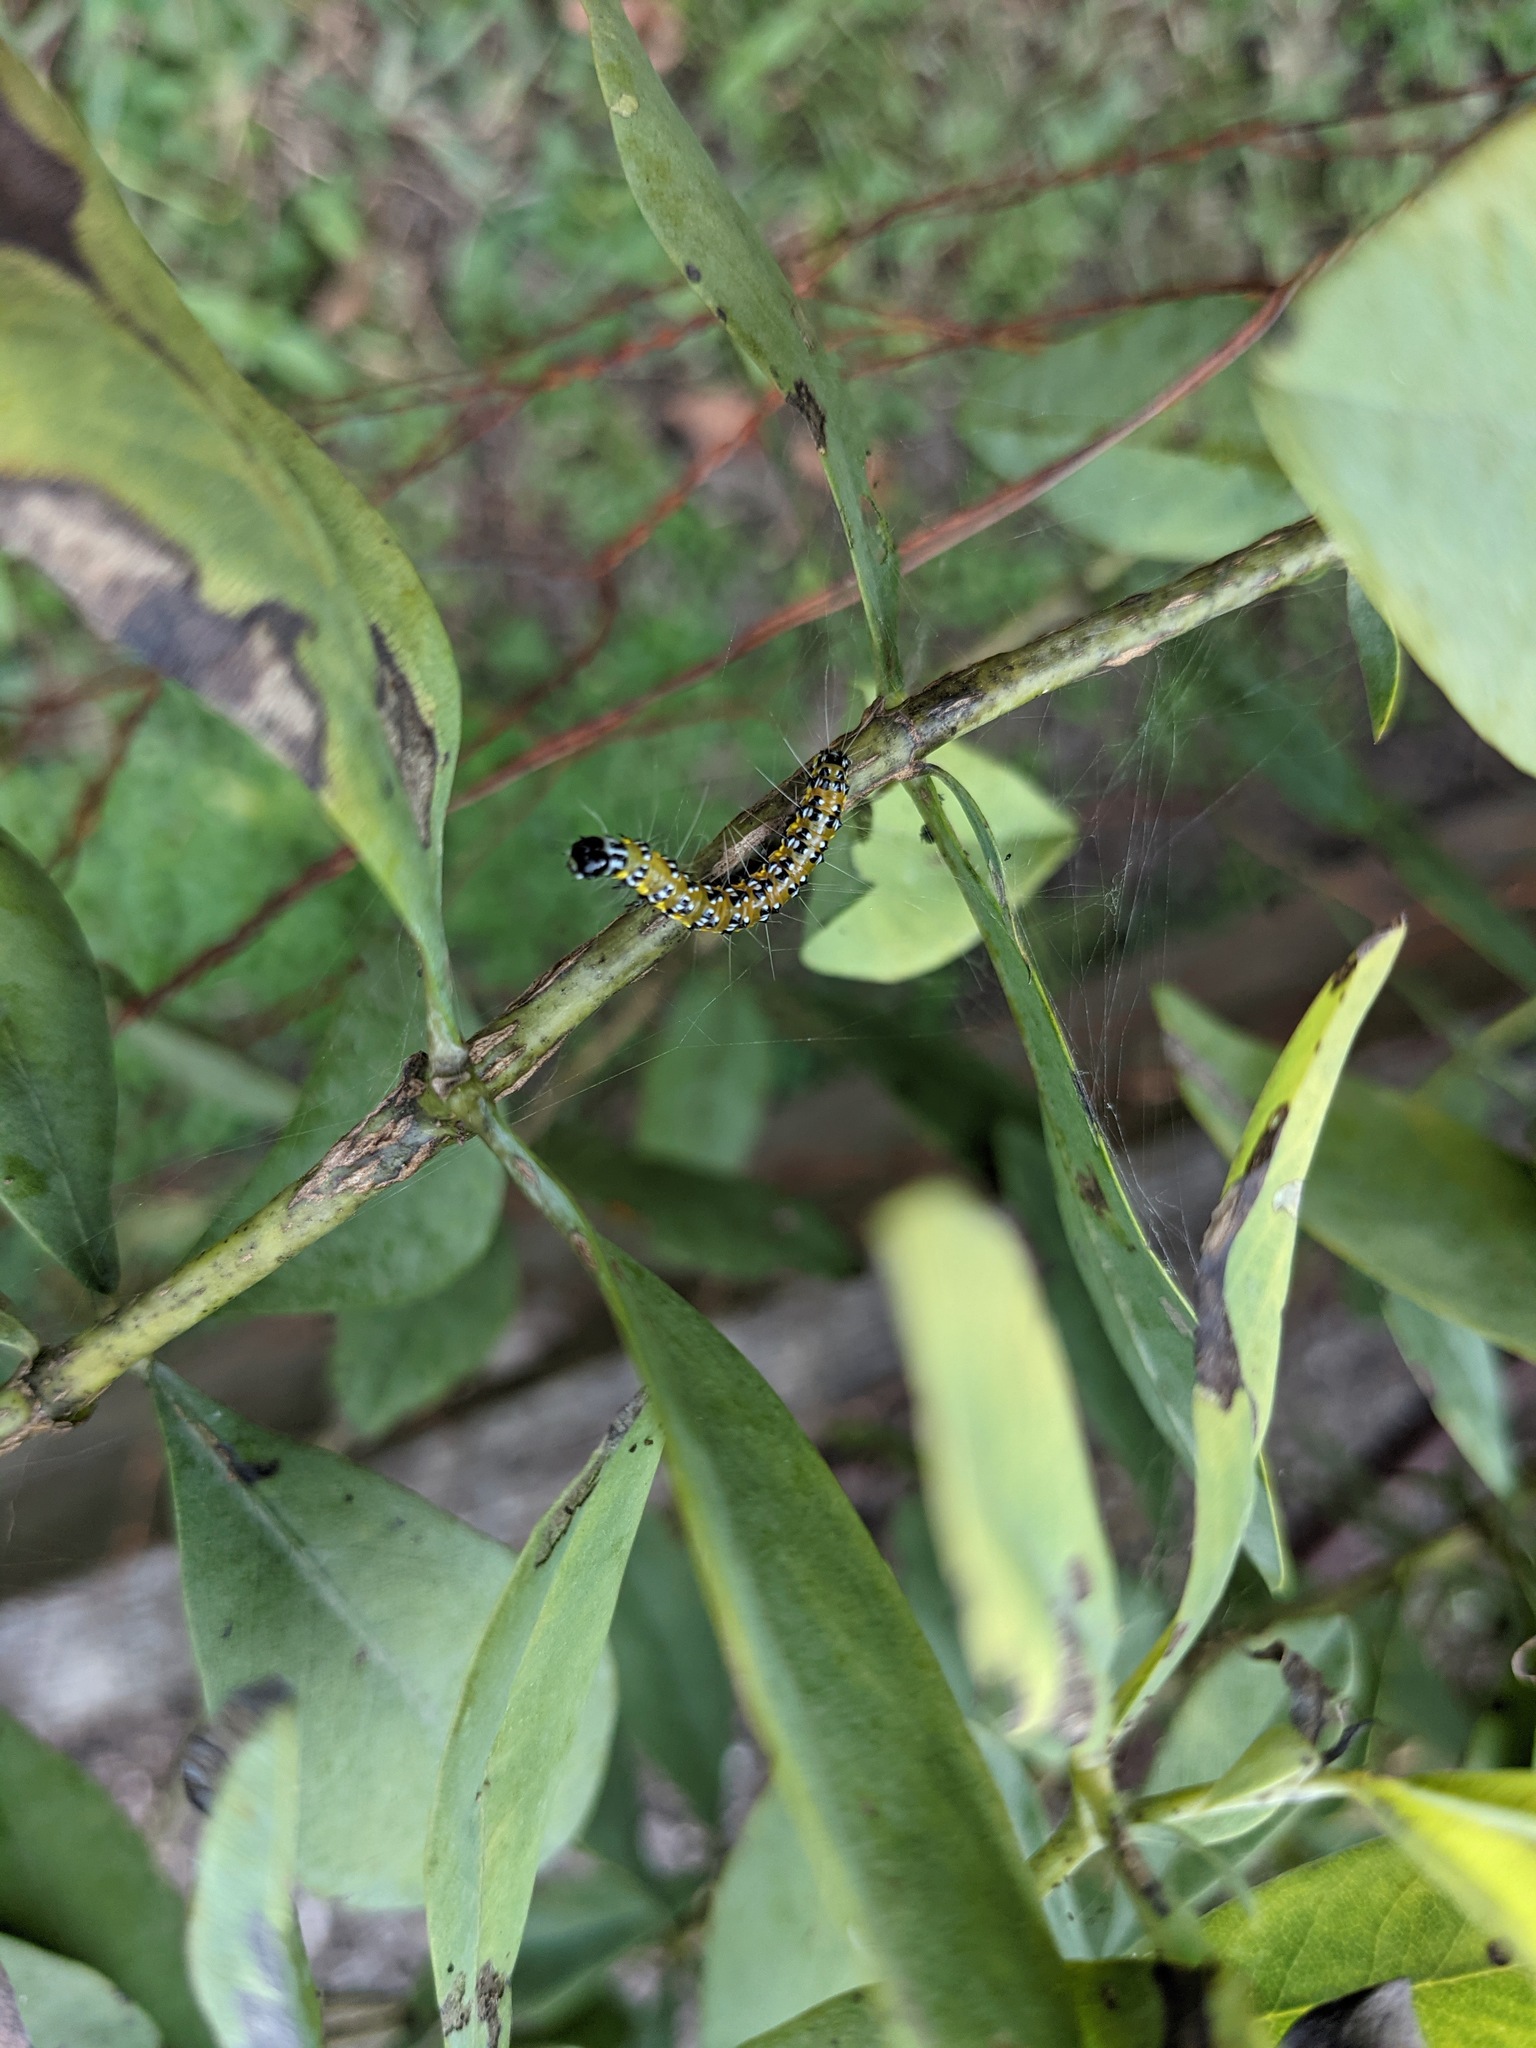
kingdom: Animalia
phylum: Arthropoda
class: Insecta
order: Lepidoptera
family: Crambidae
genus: Uresiphita
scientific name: Uresiphita reversalis
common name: Genista broom moth
